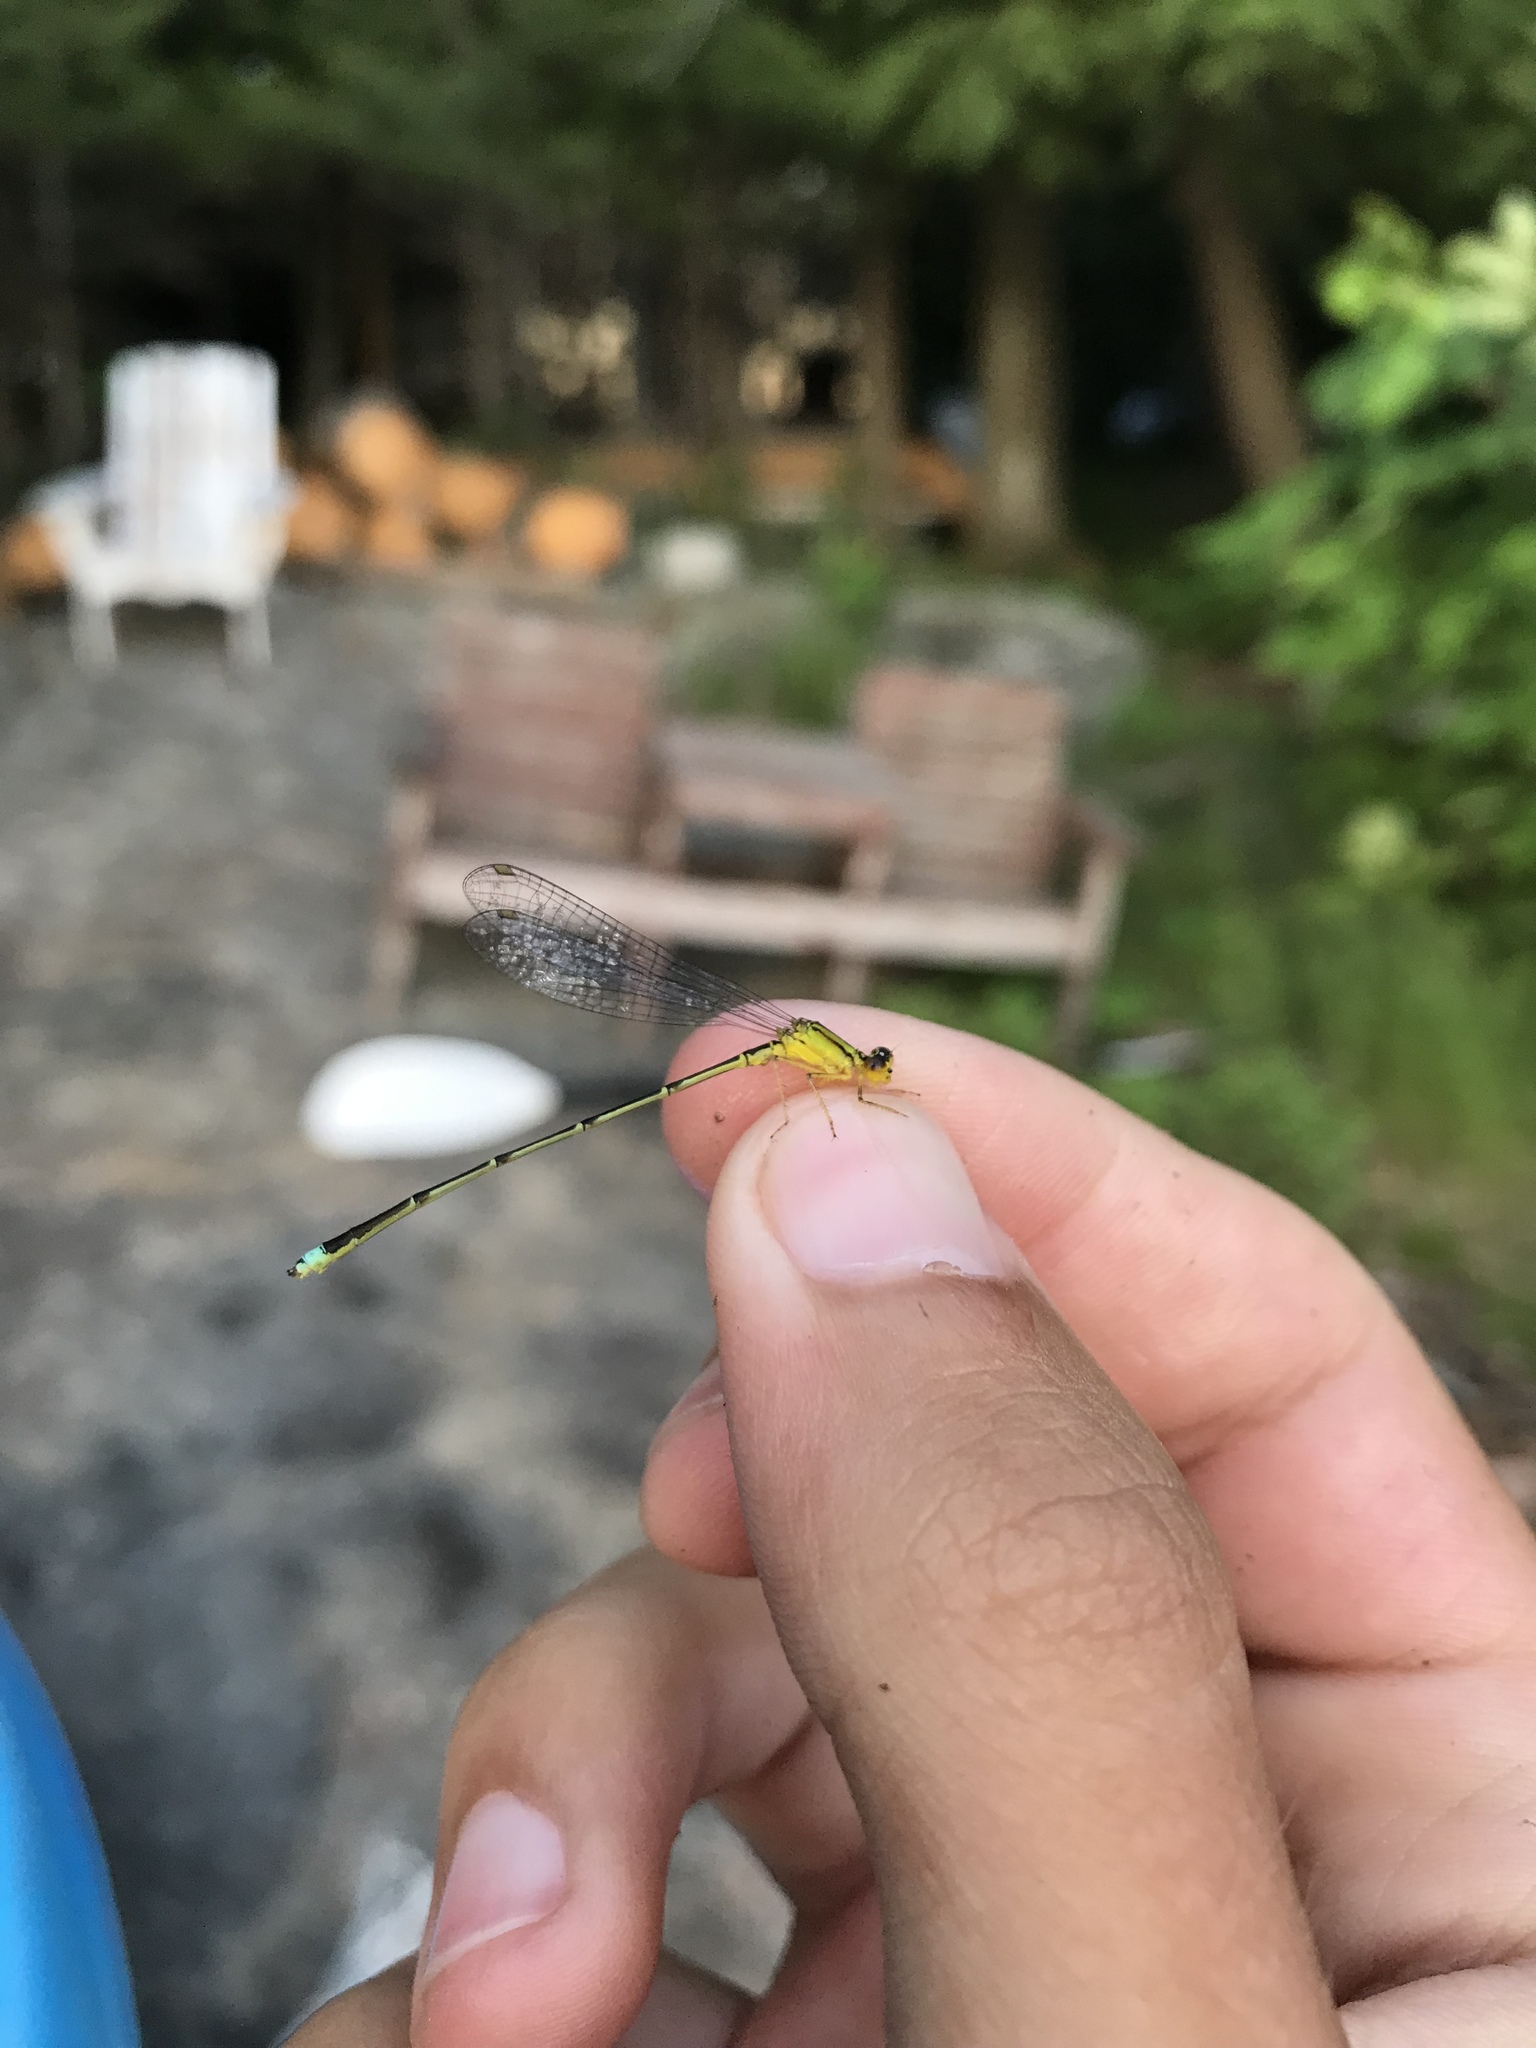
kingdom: Animalia
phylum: Arthropoda
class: Insecta
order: Odonata
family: Coenagrionidae
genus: Enallagma
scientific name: Enallagma vesperum
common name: Vesper bluet
